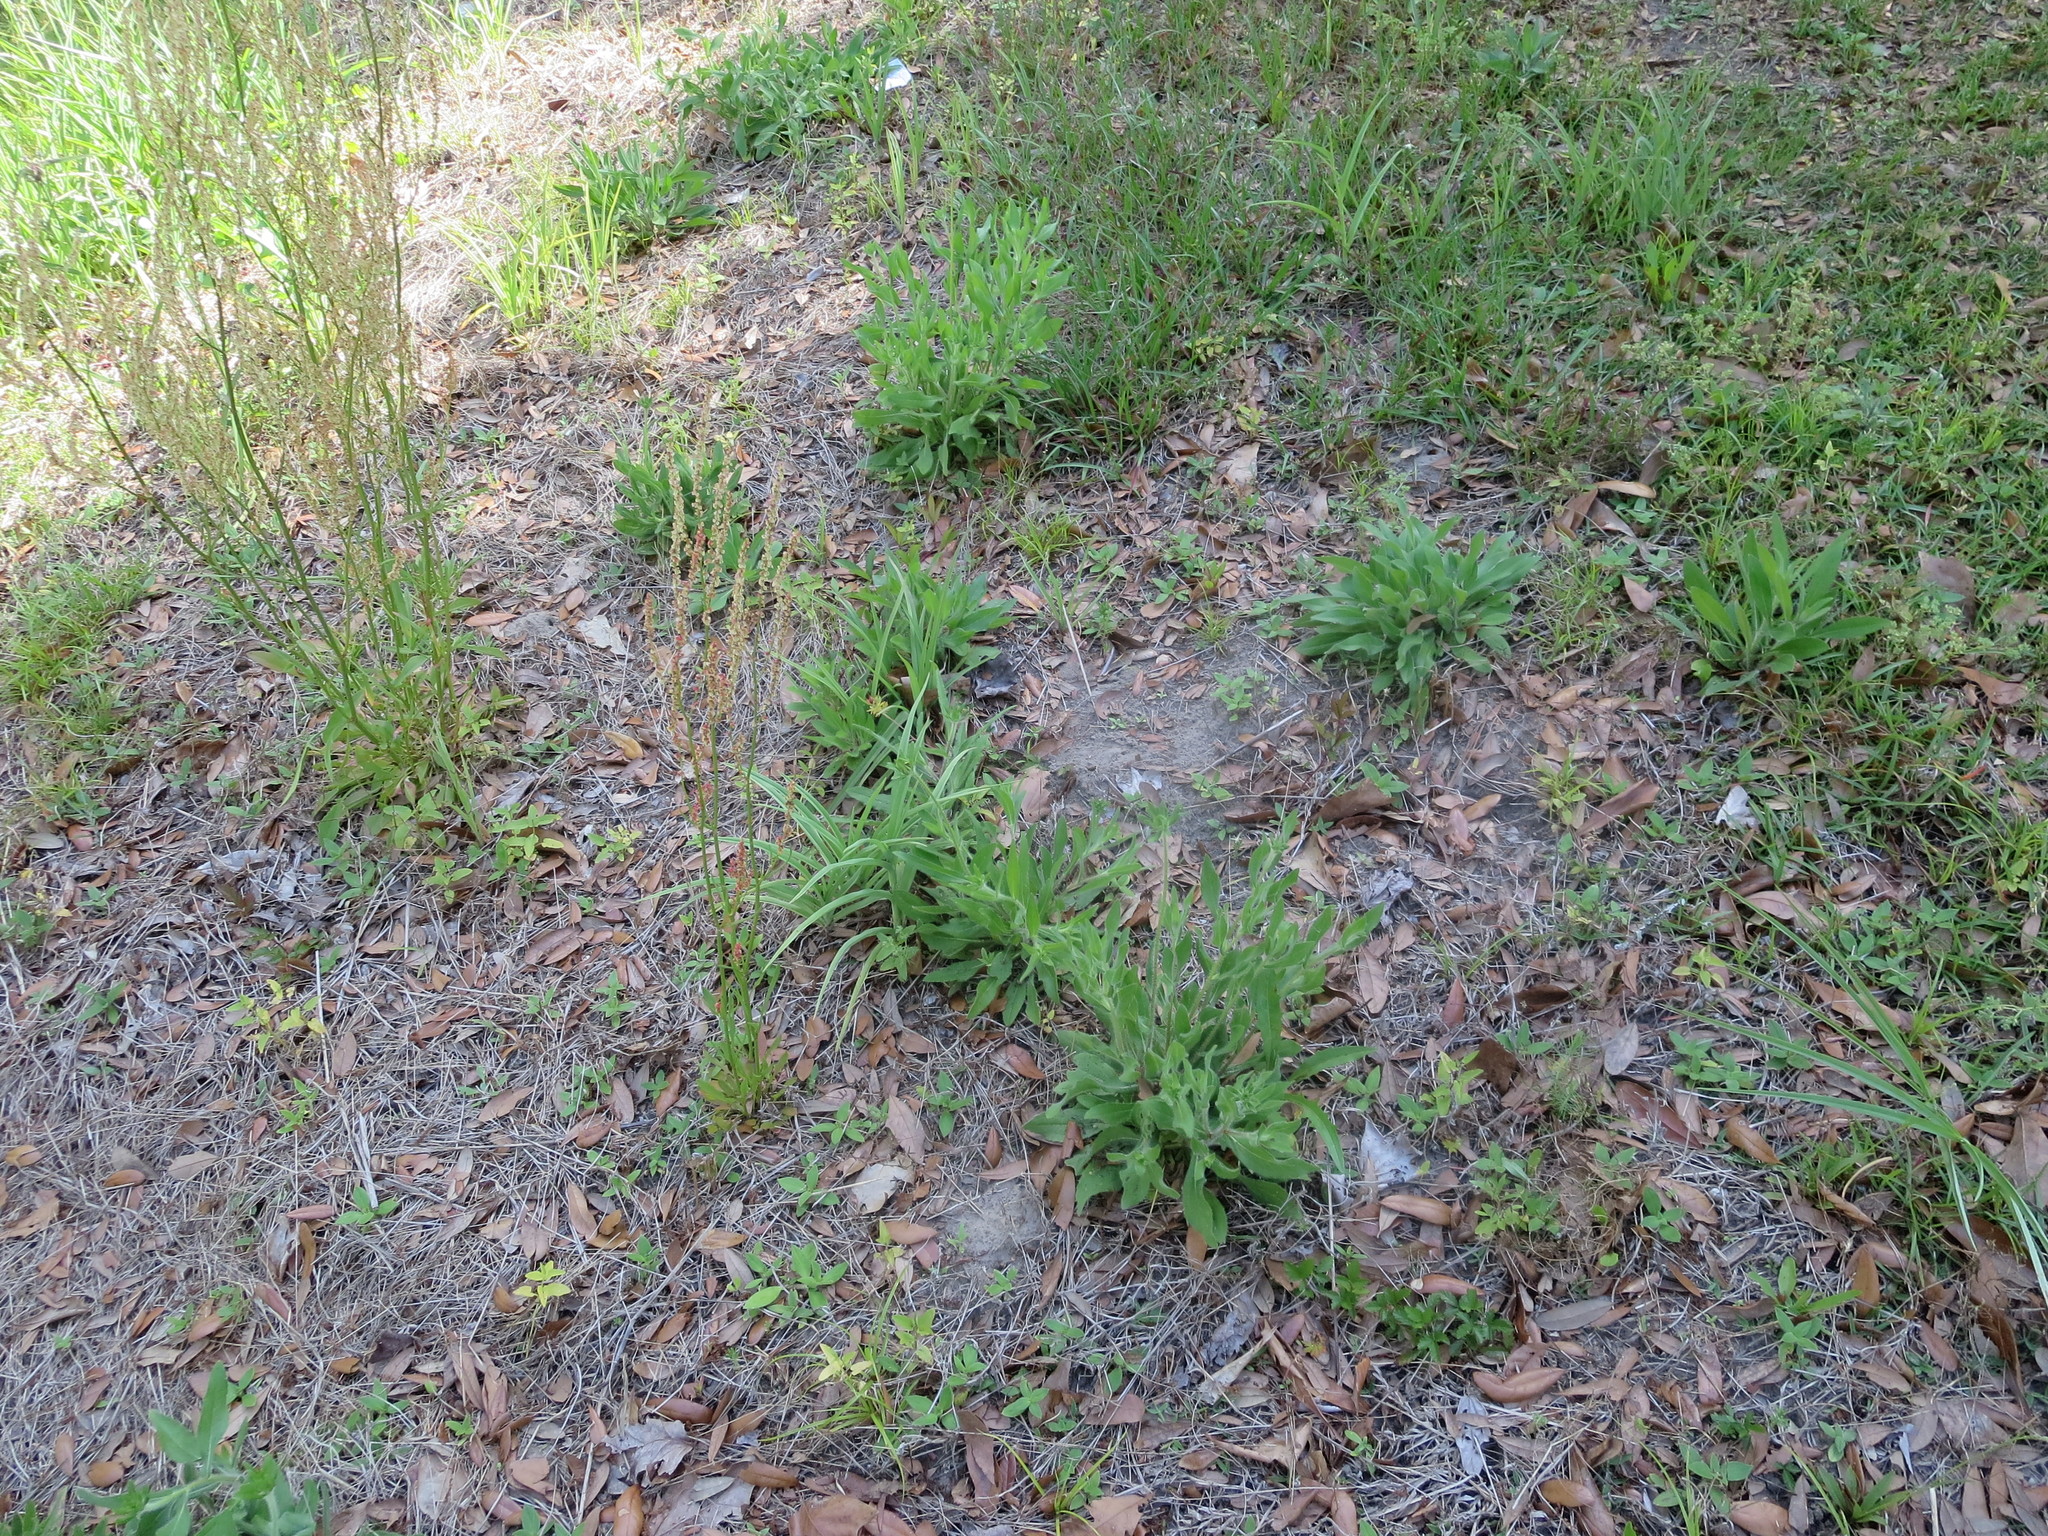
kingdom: Plantae
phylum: Tracheophyta
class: Magnoliopsida
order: Asterales
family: Asteraceae
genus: Rudbeckia
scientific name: Rudbeckia hirta
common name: Black-eyed-susan
